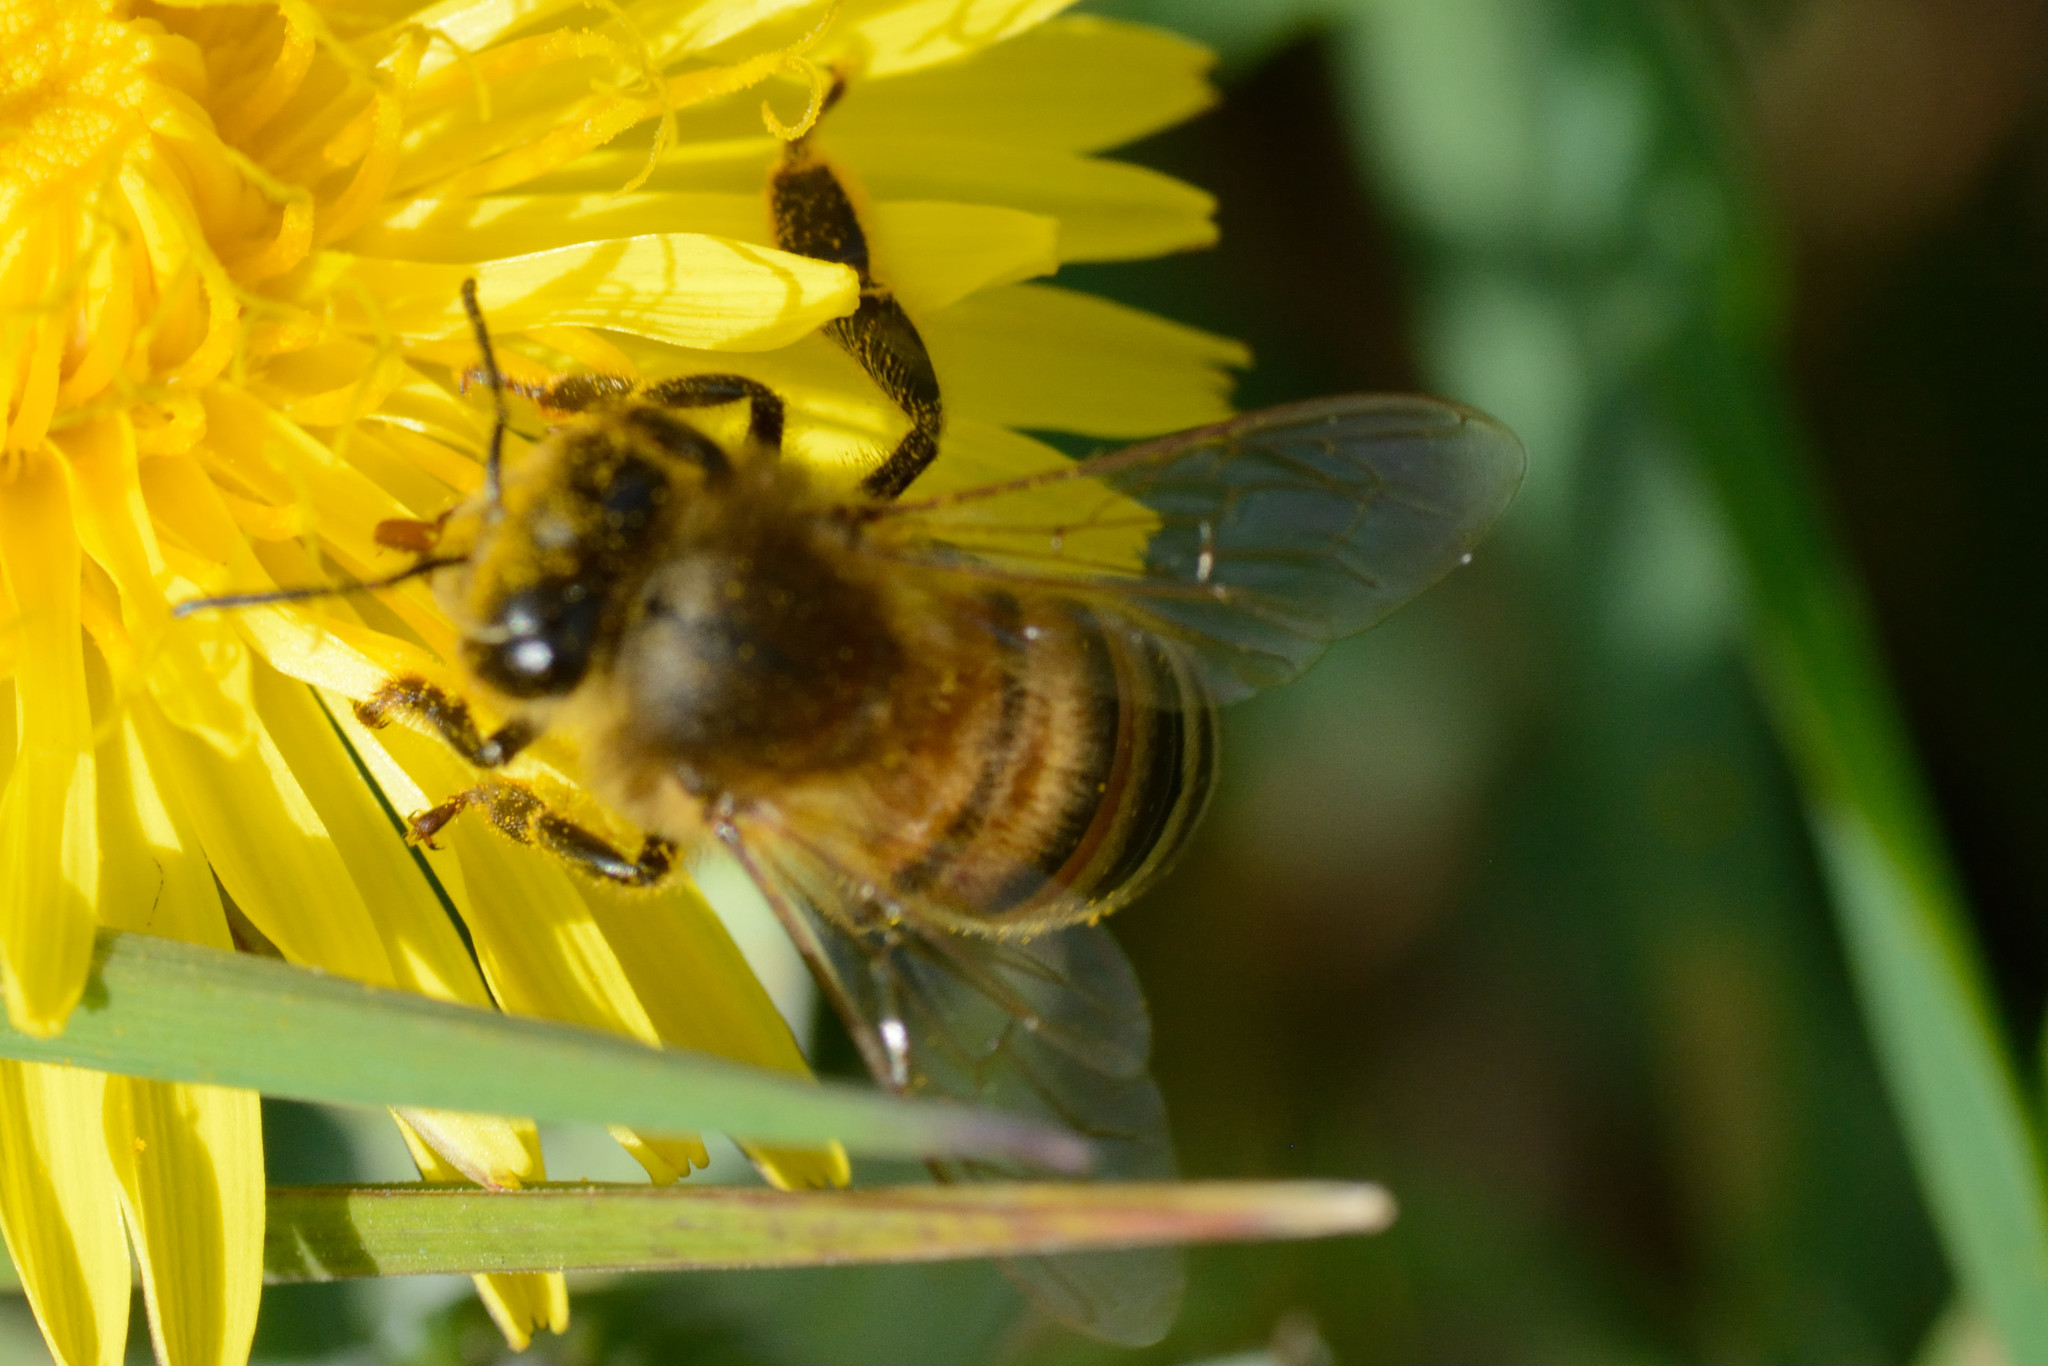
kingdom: Animalia
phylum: Arthropoda
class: Insecta
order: Hymenoptera
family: Apidae
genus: Apis
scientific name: Apis mellifera
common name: Honey bee
